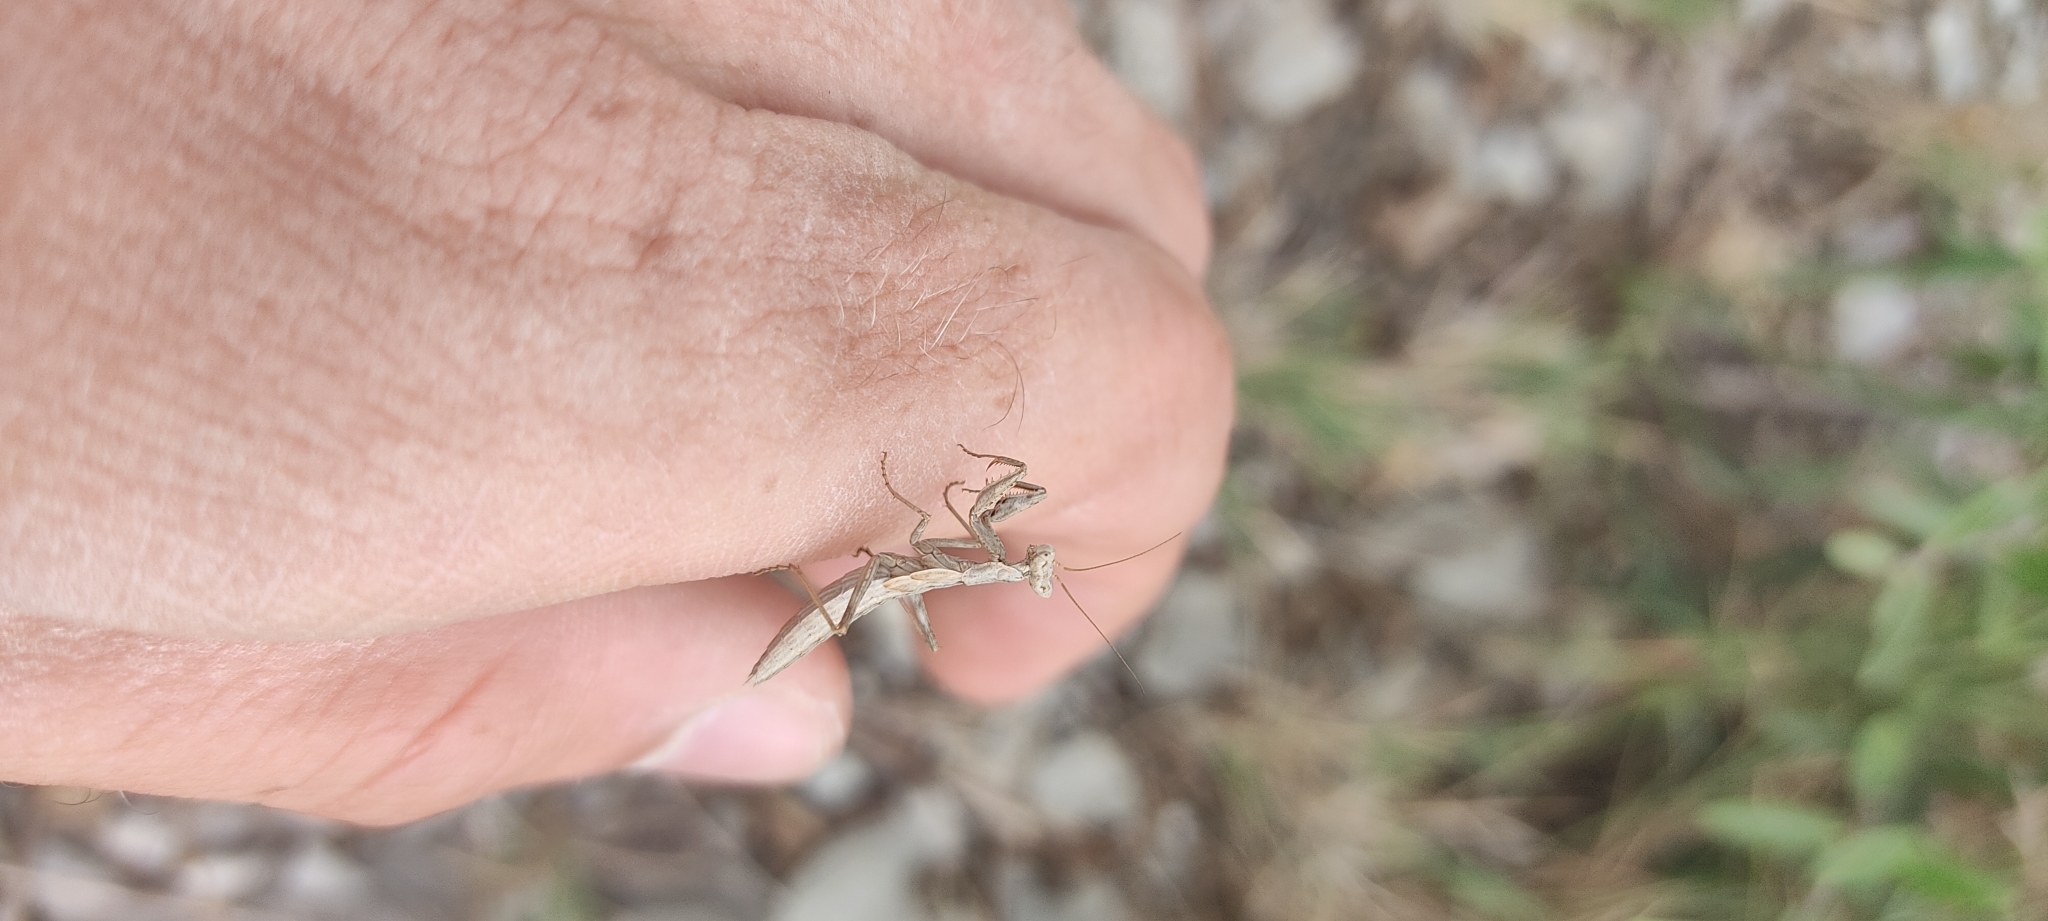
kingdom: Animalia
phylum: Arthropoda
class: Insecta
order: Mantodea
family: Amelidae
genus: Ameles
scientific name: Ameles decolor
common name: Dwarf mantis
